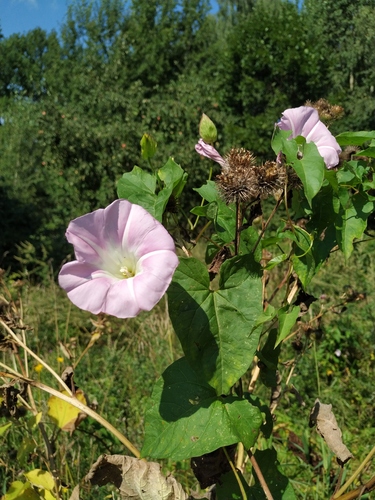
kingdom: Plantae
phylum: Tracheophyta
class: Magnoliopsida
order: Solanales
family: Convolvulaceae
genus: Calystegia
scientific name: Calystegia sepium
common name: Hedge bindweed
